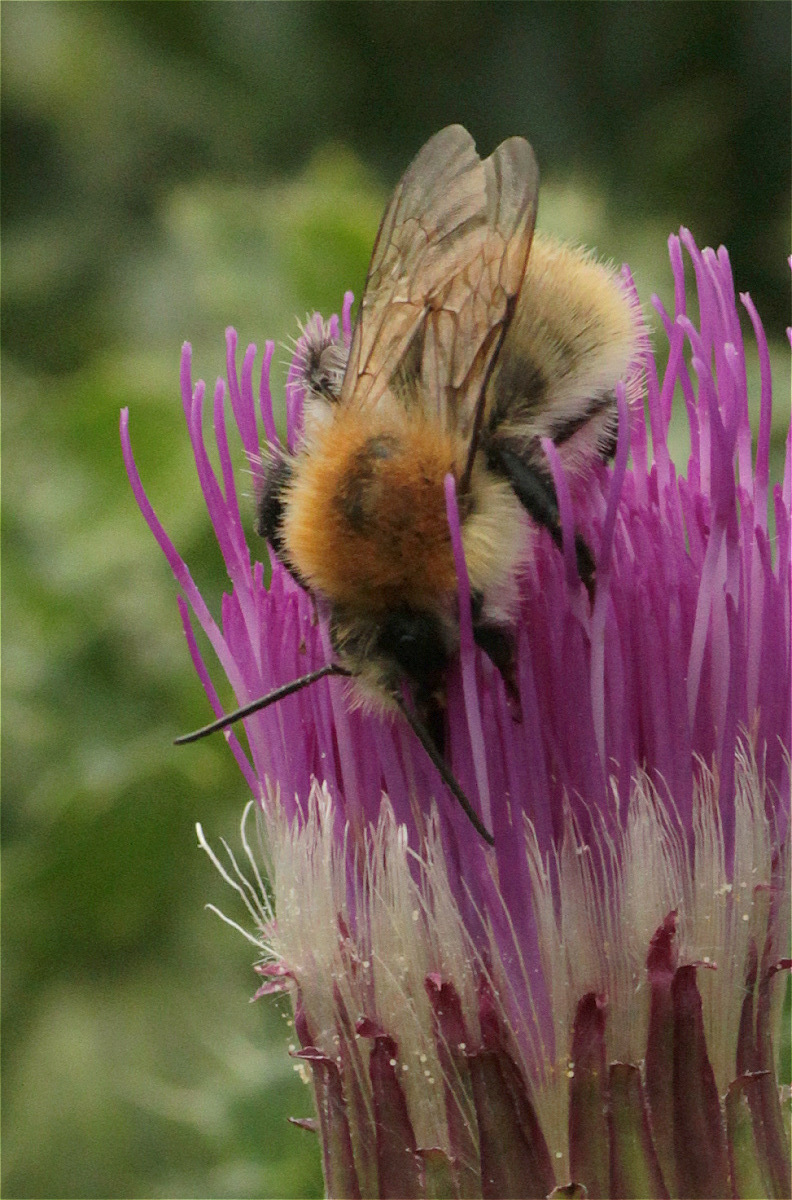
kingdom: Animalia
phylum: Arthropoda
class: Insecta
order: Hymenoptera
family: Apidae
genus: Bombus
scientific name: Bombus pascuorum
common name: Common carder bee
